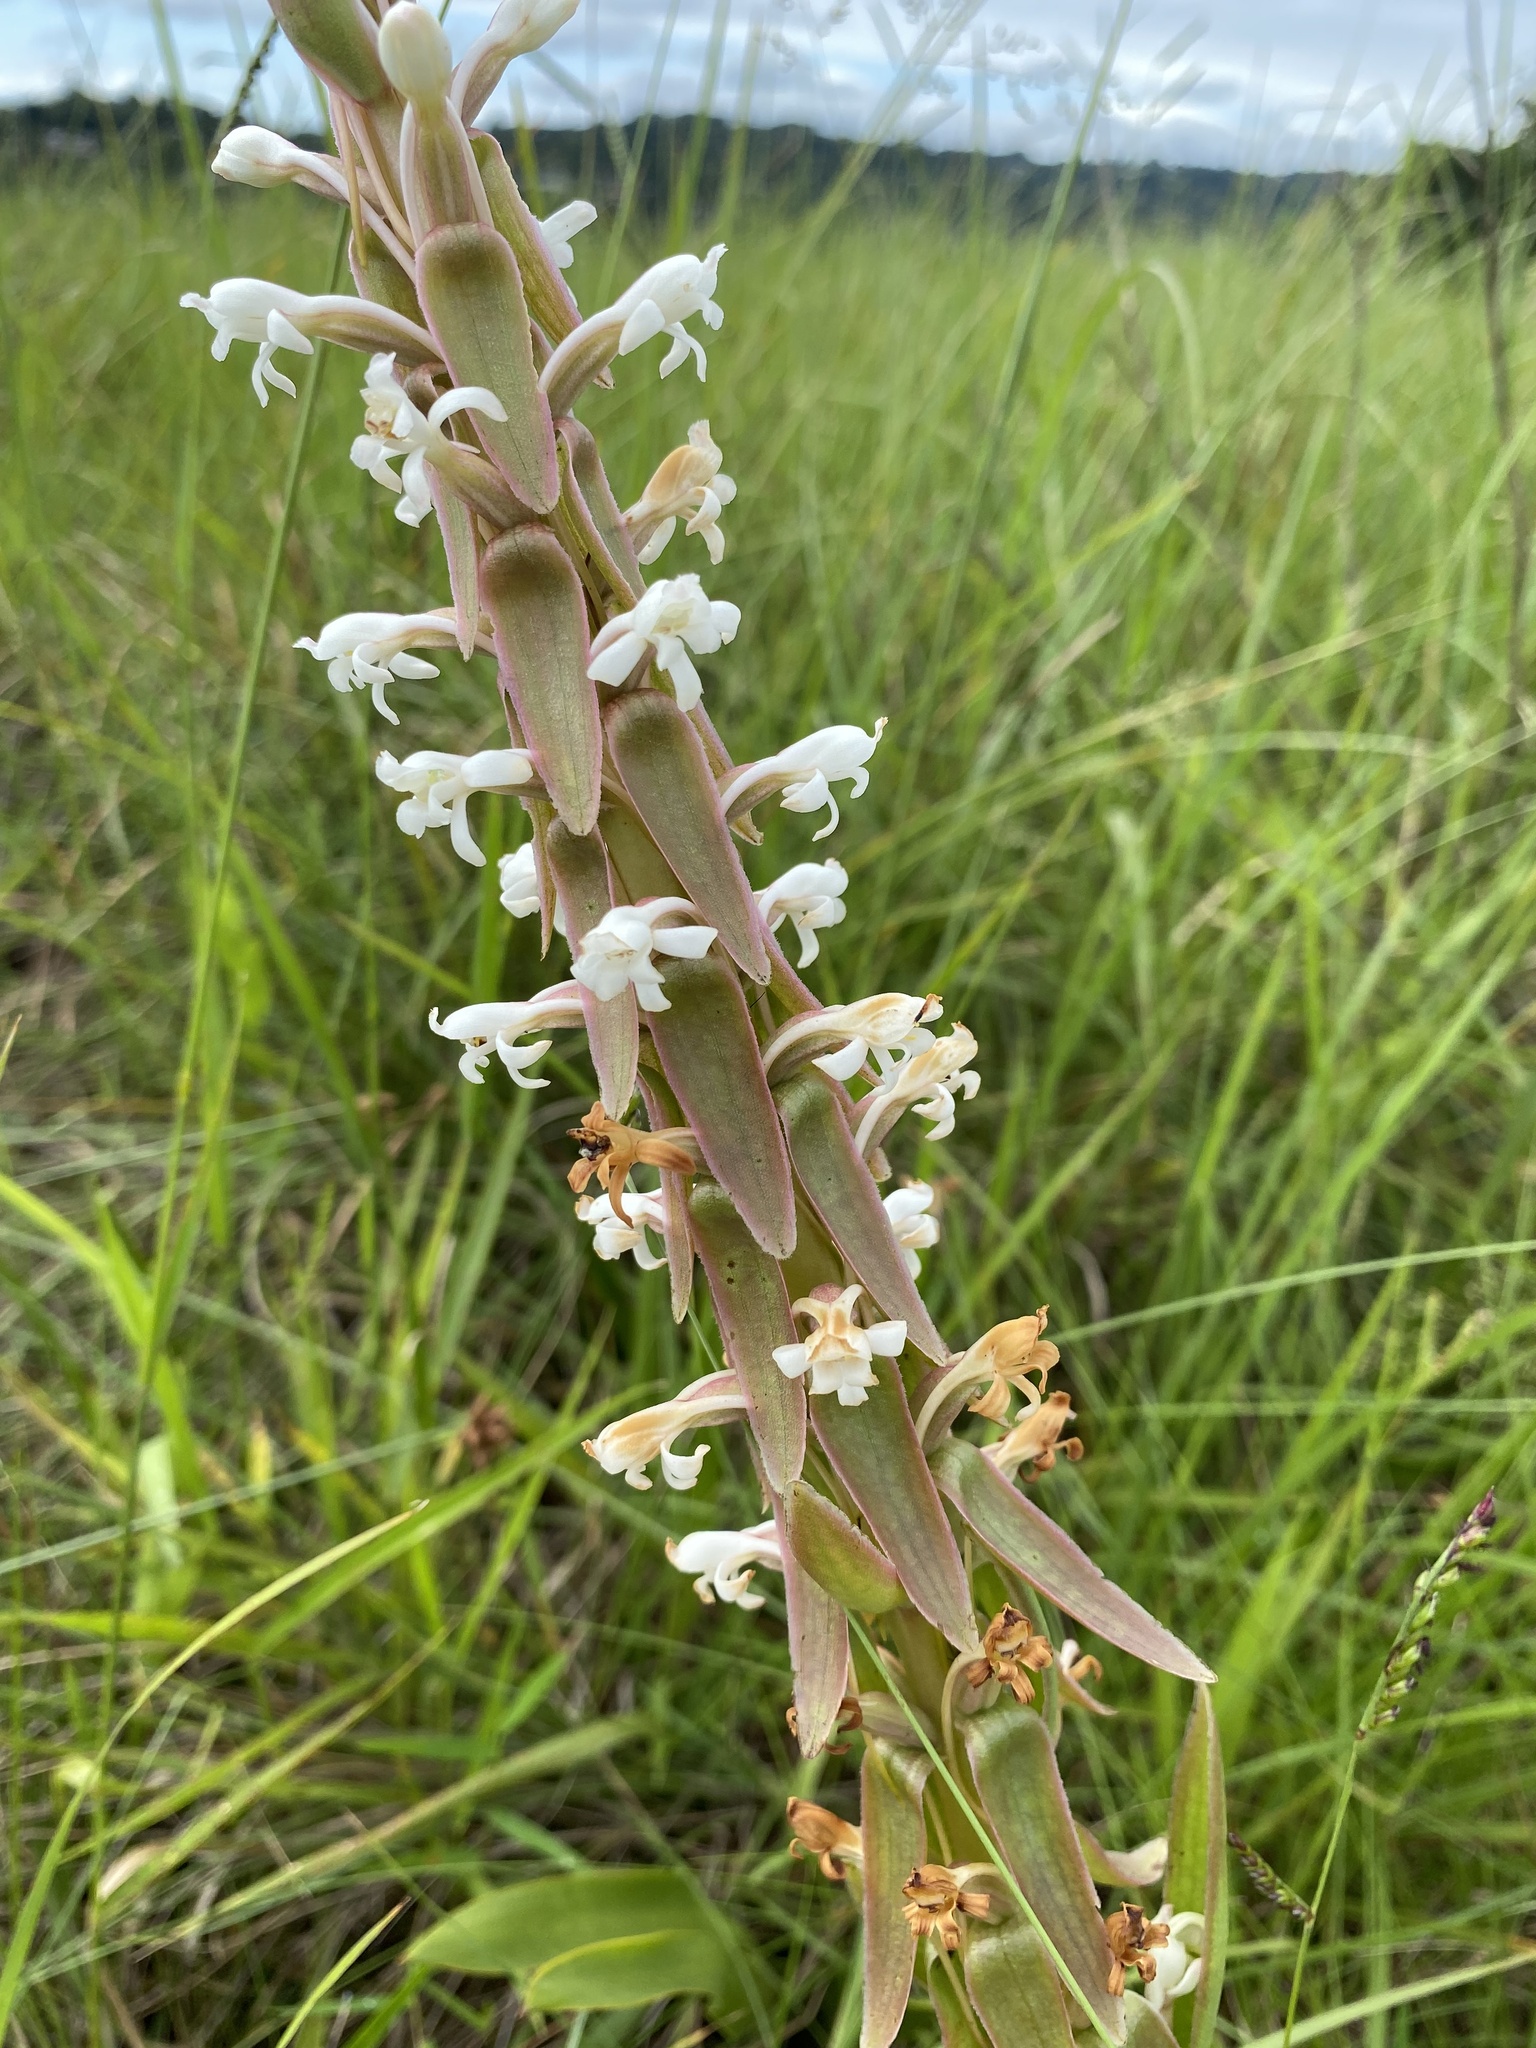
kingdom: Plantae
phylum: Tracheophyta
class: Liliopsida
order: Asparagales
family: Orchidaceae
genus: Satyrium
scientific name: Satyrium longicauda
